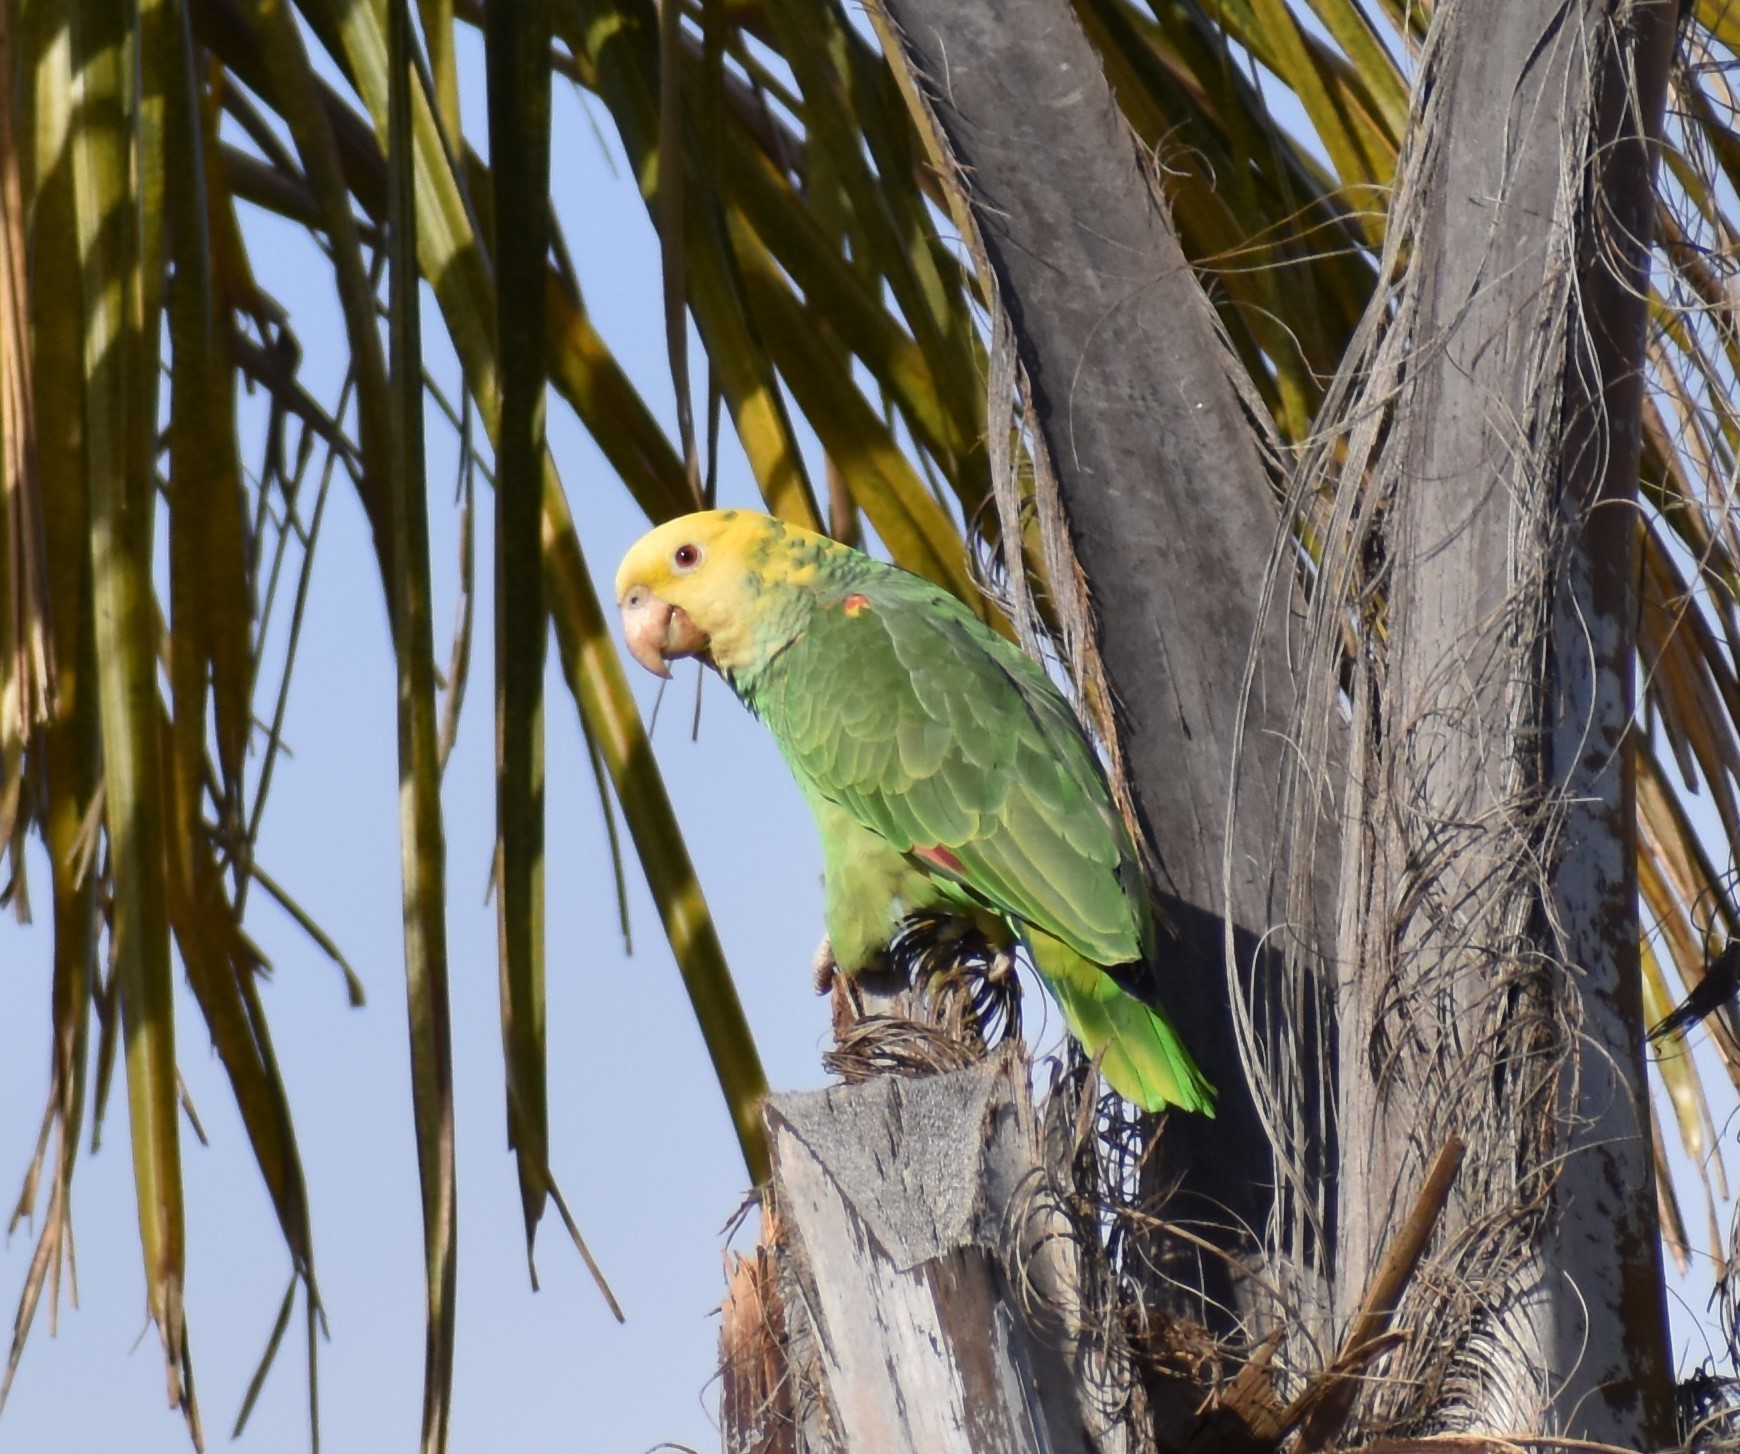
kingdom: Animalia
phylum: Chordata
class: Aves
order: Psittaciformes
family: Psittacidae
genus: Amazona
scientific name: Amazona oratrix
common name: Yellow-headed amazon
